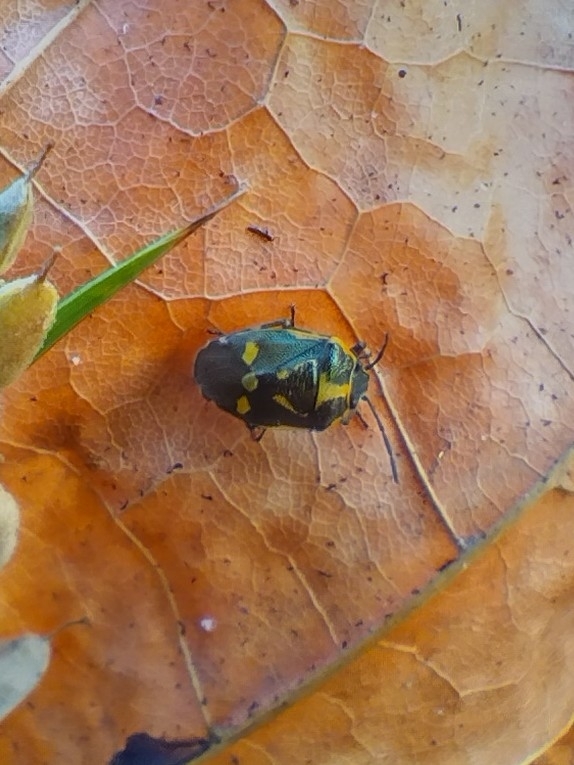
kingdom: Animalia
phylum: Arthropoda
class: Insecta
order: Hemiptera
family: Pentatomidae
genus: Eurydema
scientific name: Eurydema oleracea
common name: Cabbage bug
